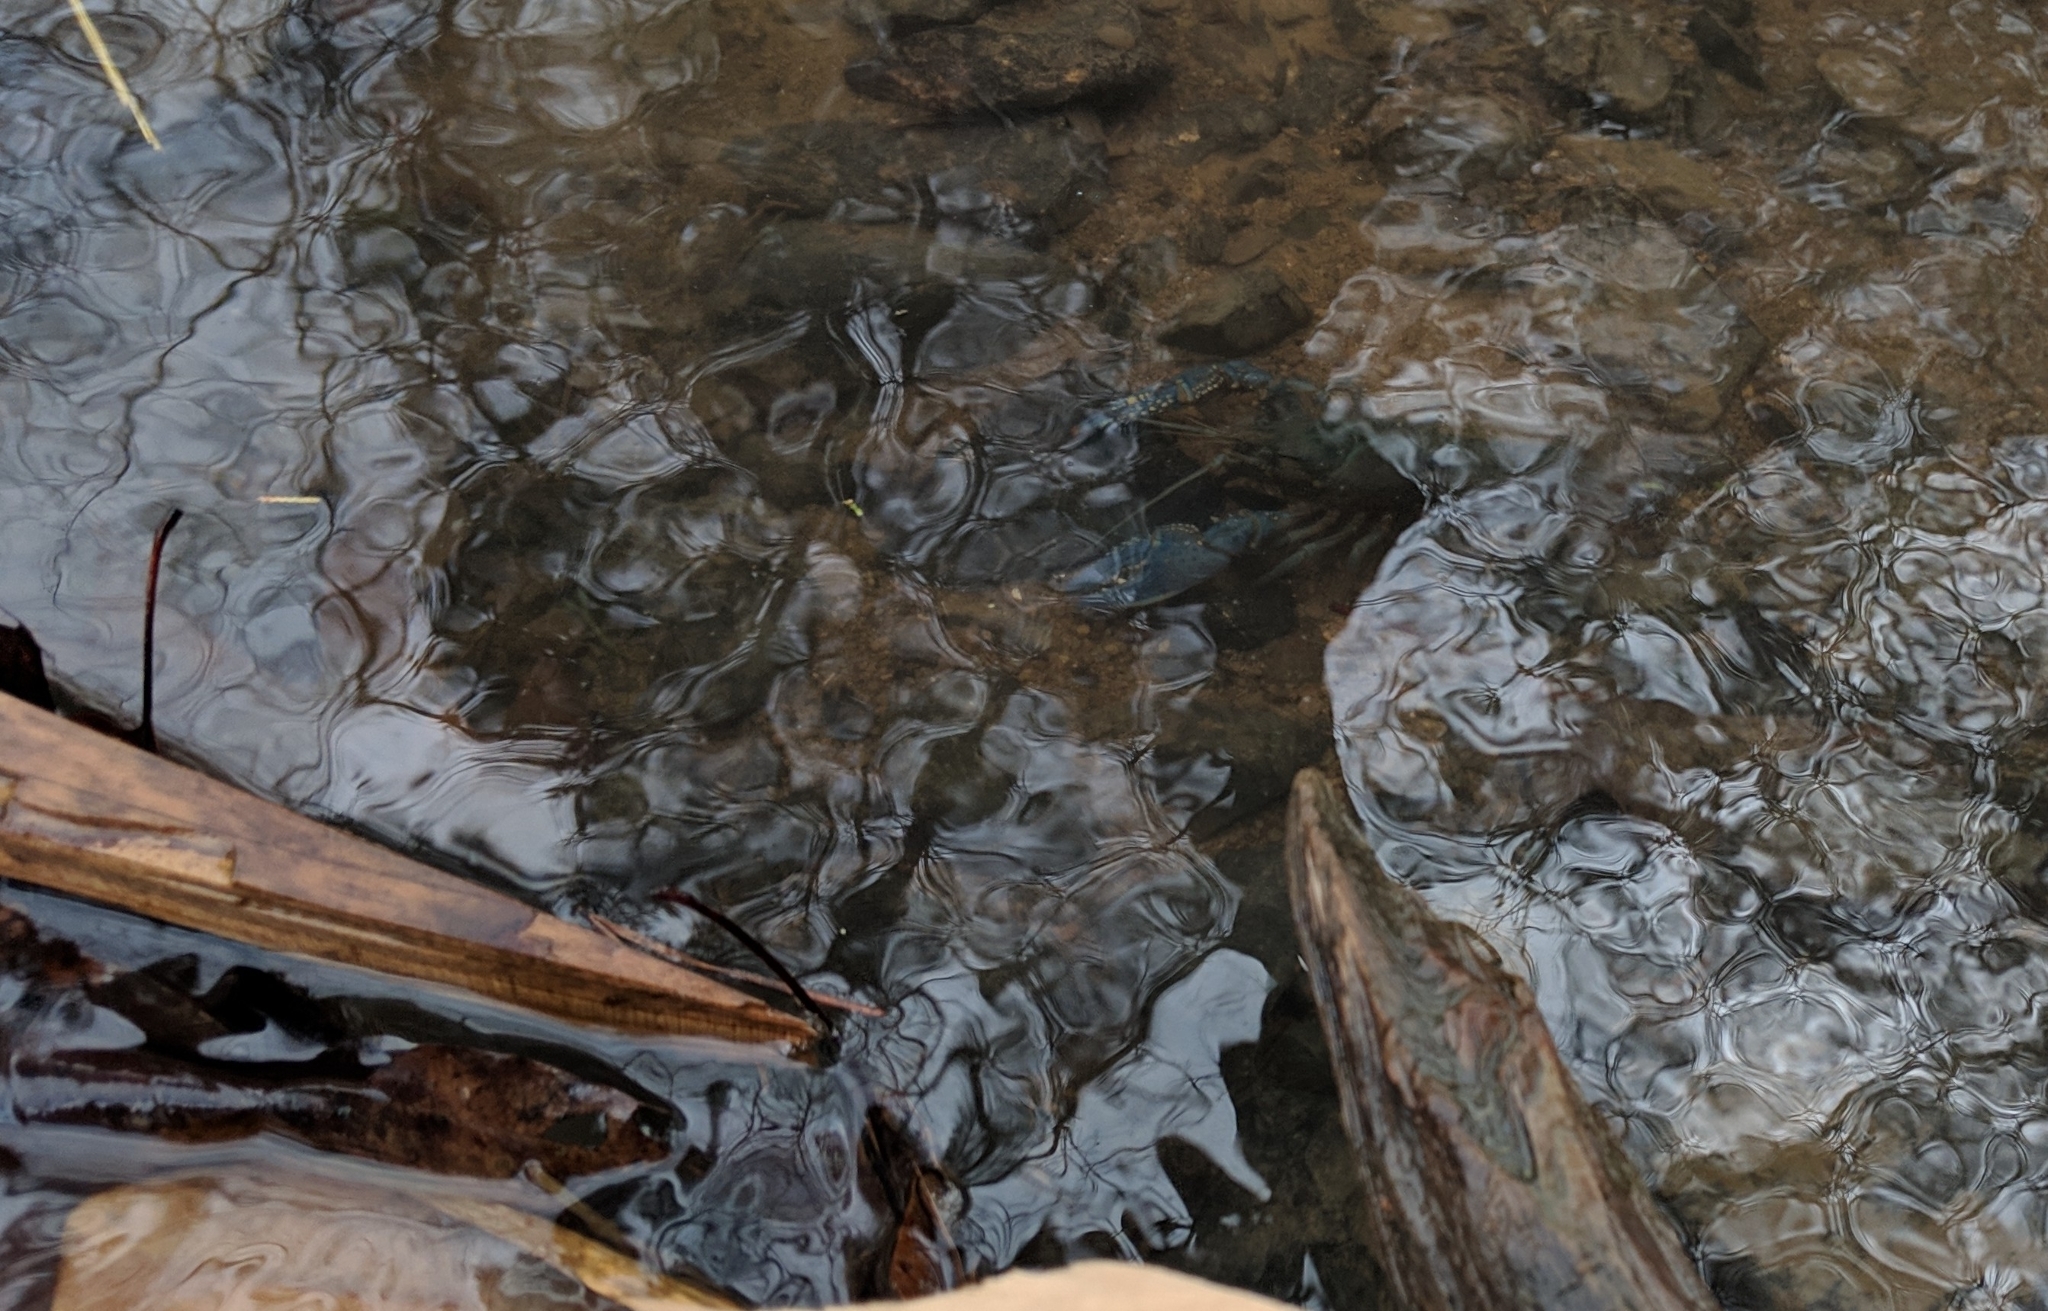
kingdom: Animalia
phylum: Arthropoda
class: Malacostraca
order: Decapoda
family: Cambaridae
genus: Faxonius
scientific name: Faxonius virilis
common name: Virile crayfish
